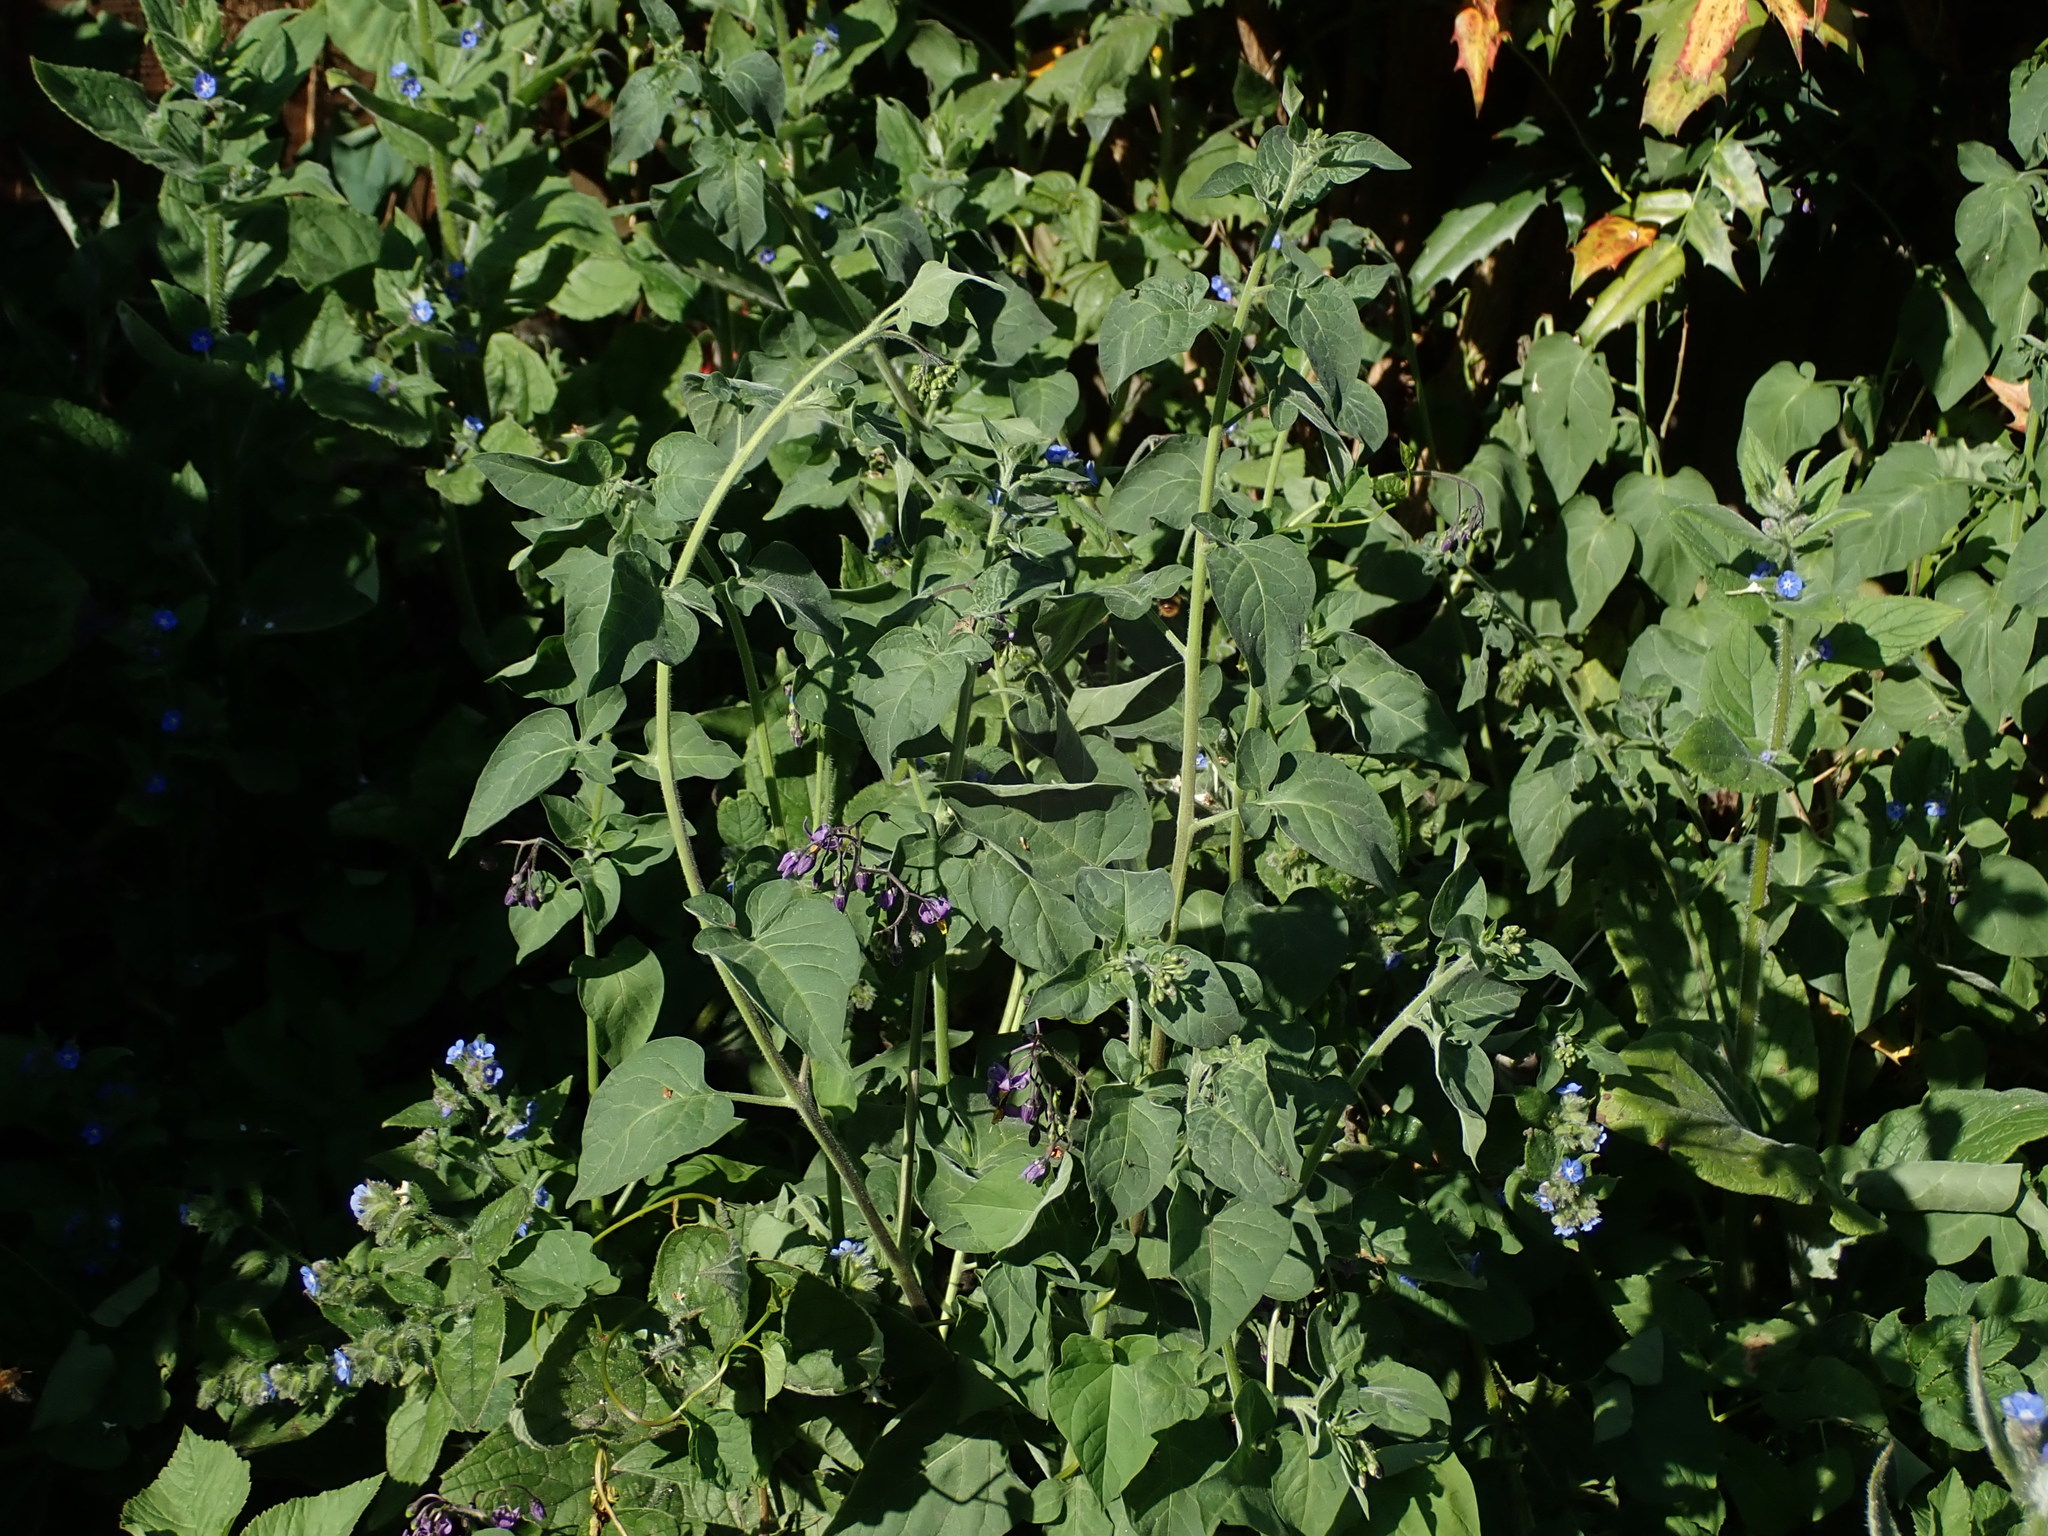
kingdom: Plantae
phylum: Tracheophyta
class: Magnoliopsida
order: Solanales
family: Solanaceae
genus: Solanum
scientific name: Solanum dulcamara
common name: Climbing nightshade
